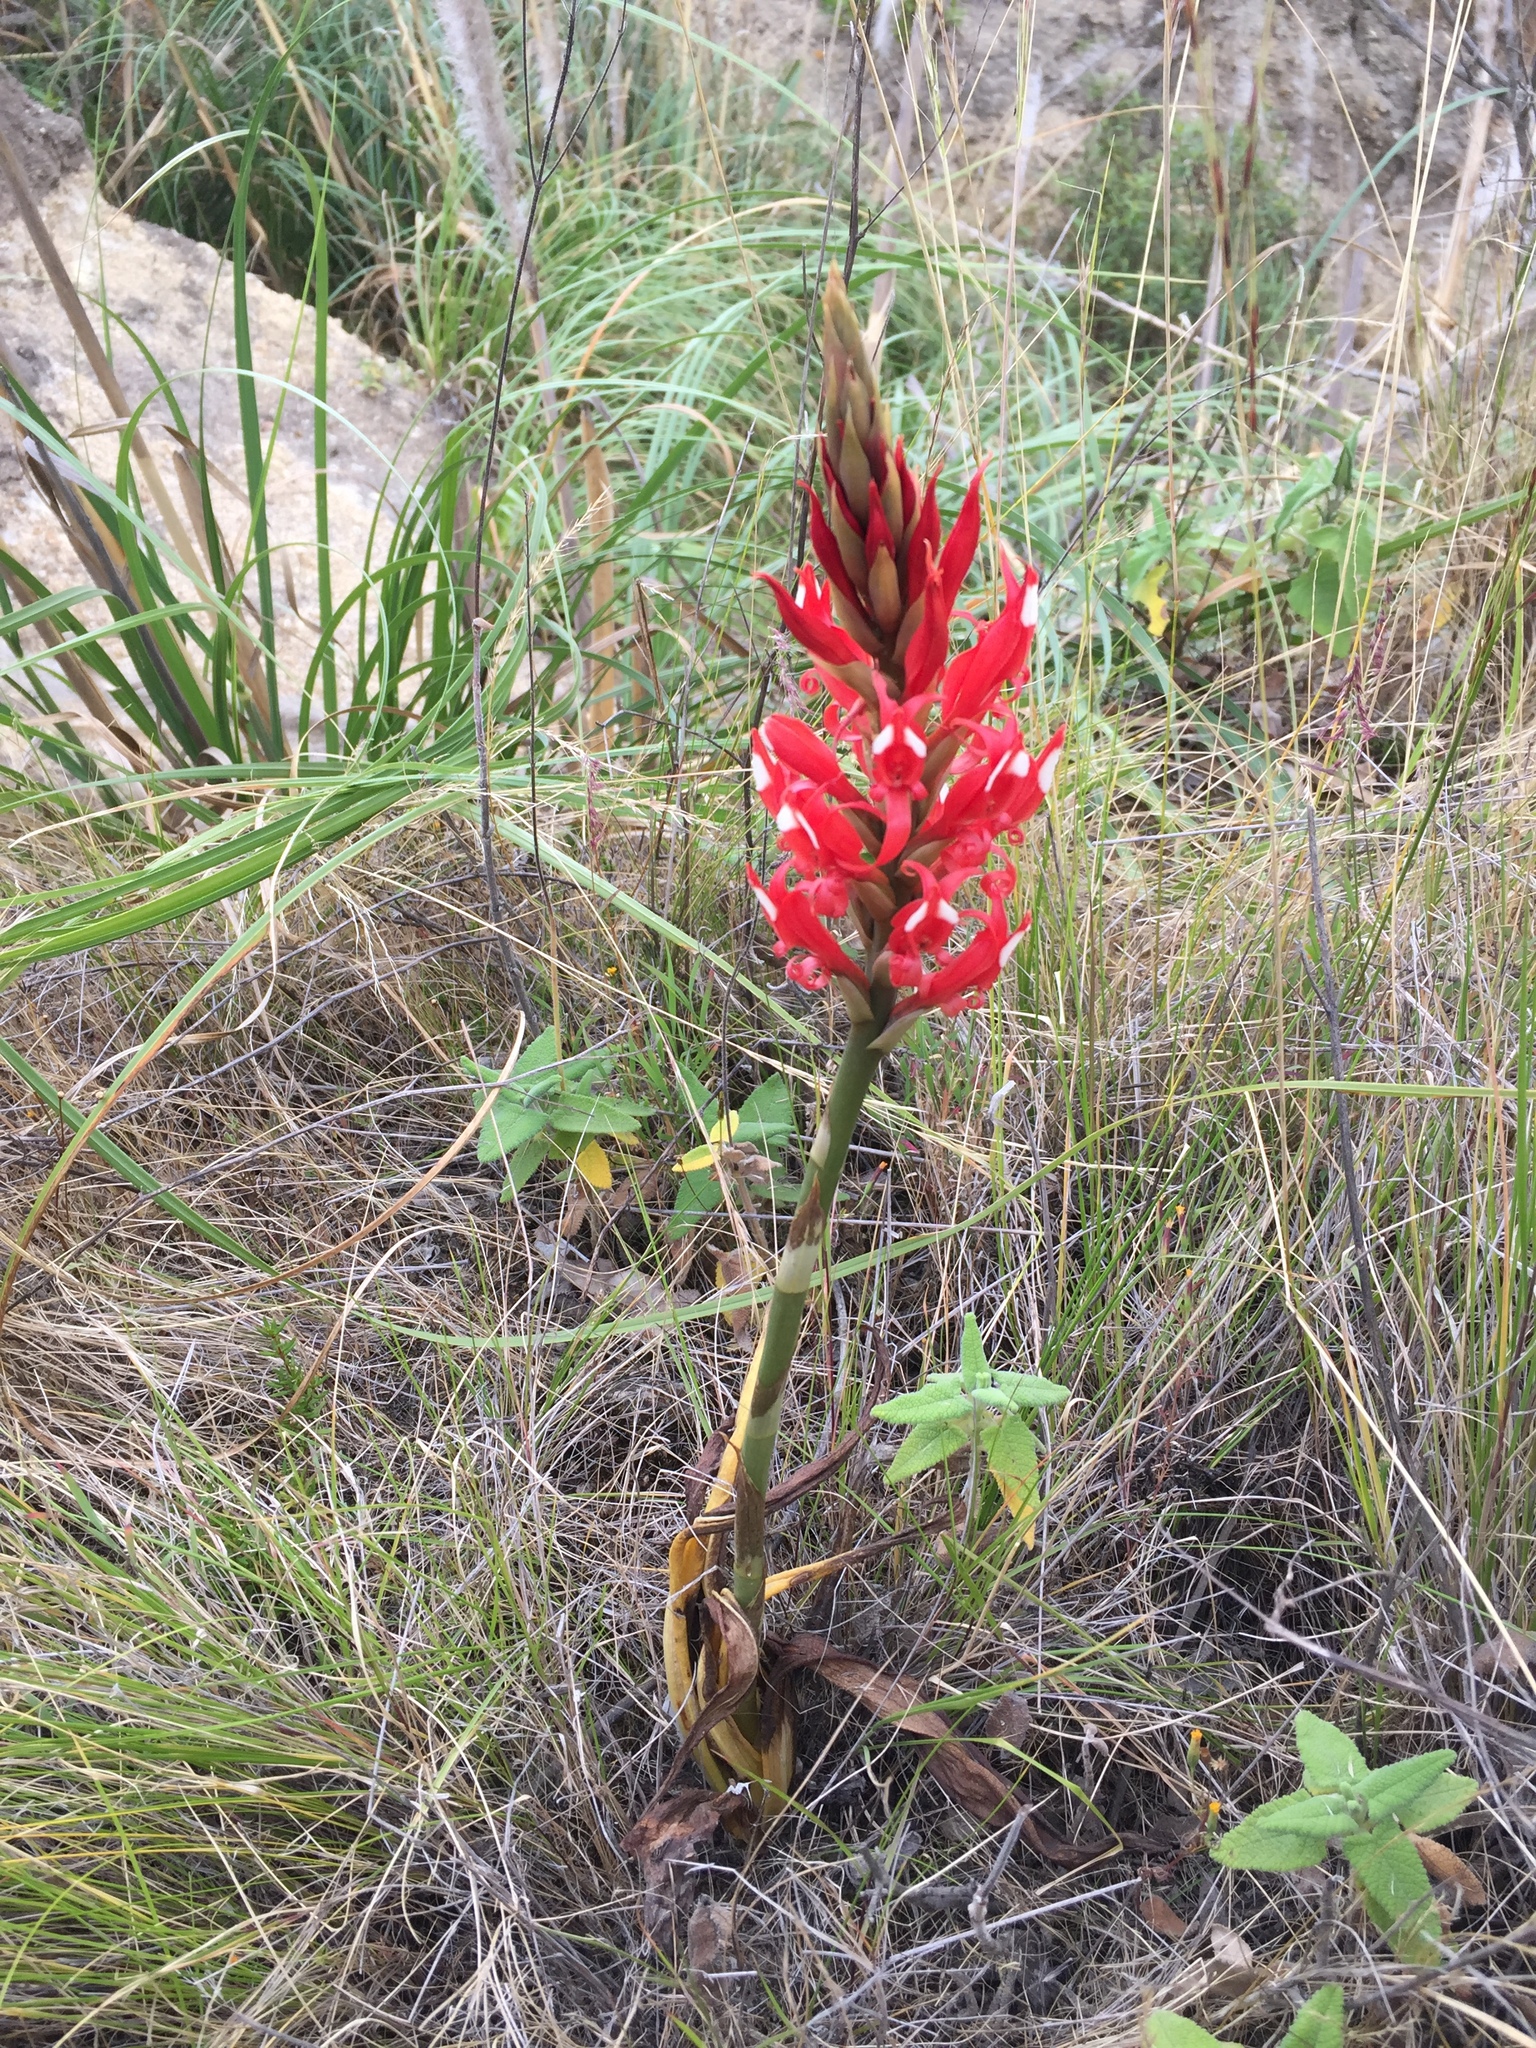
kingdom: Plantae
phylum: Tracheophyta
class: Liliopsida
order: Asparagales
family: Orchidaceae
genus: Porphyrostachys
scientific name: Porphyrostachys pilifera
